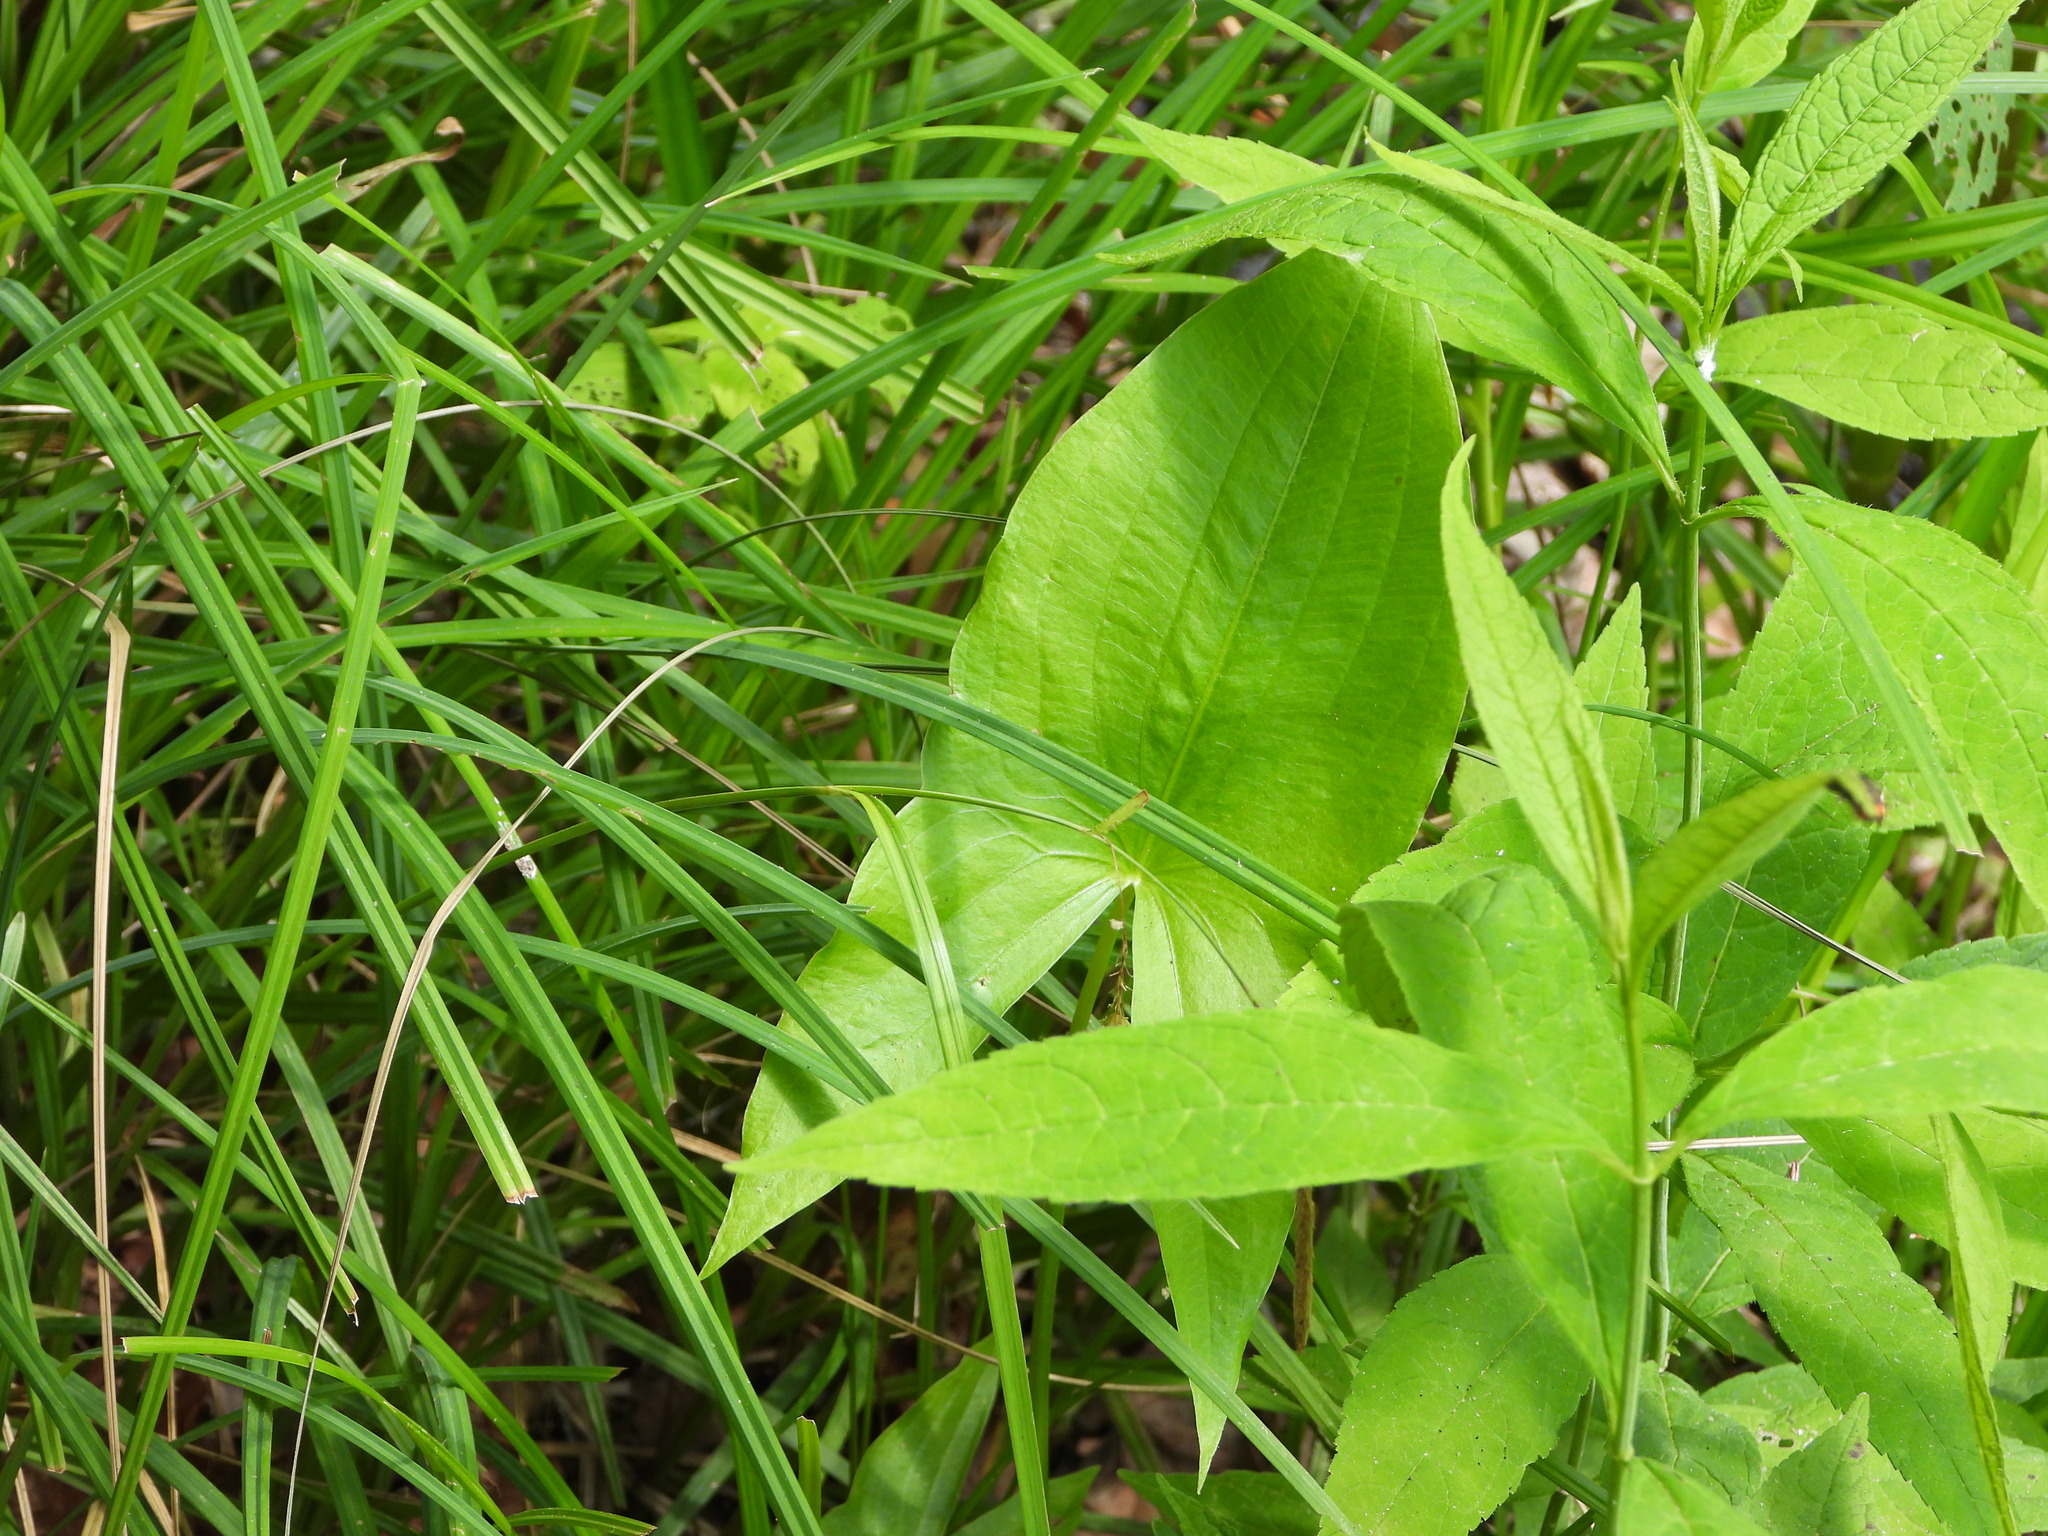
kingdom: Plantae
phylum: Tracheophyta
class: Liliopsida
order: Alismatales
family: Alismataceae
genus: Sagittaria
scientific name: Sagittaria australis
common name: Appalachian arrowhead
